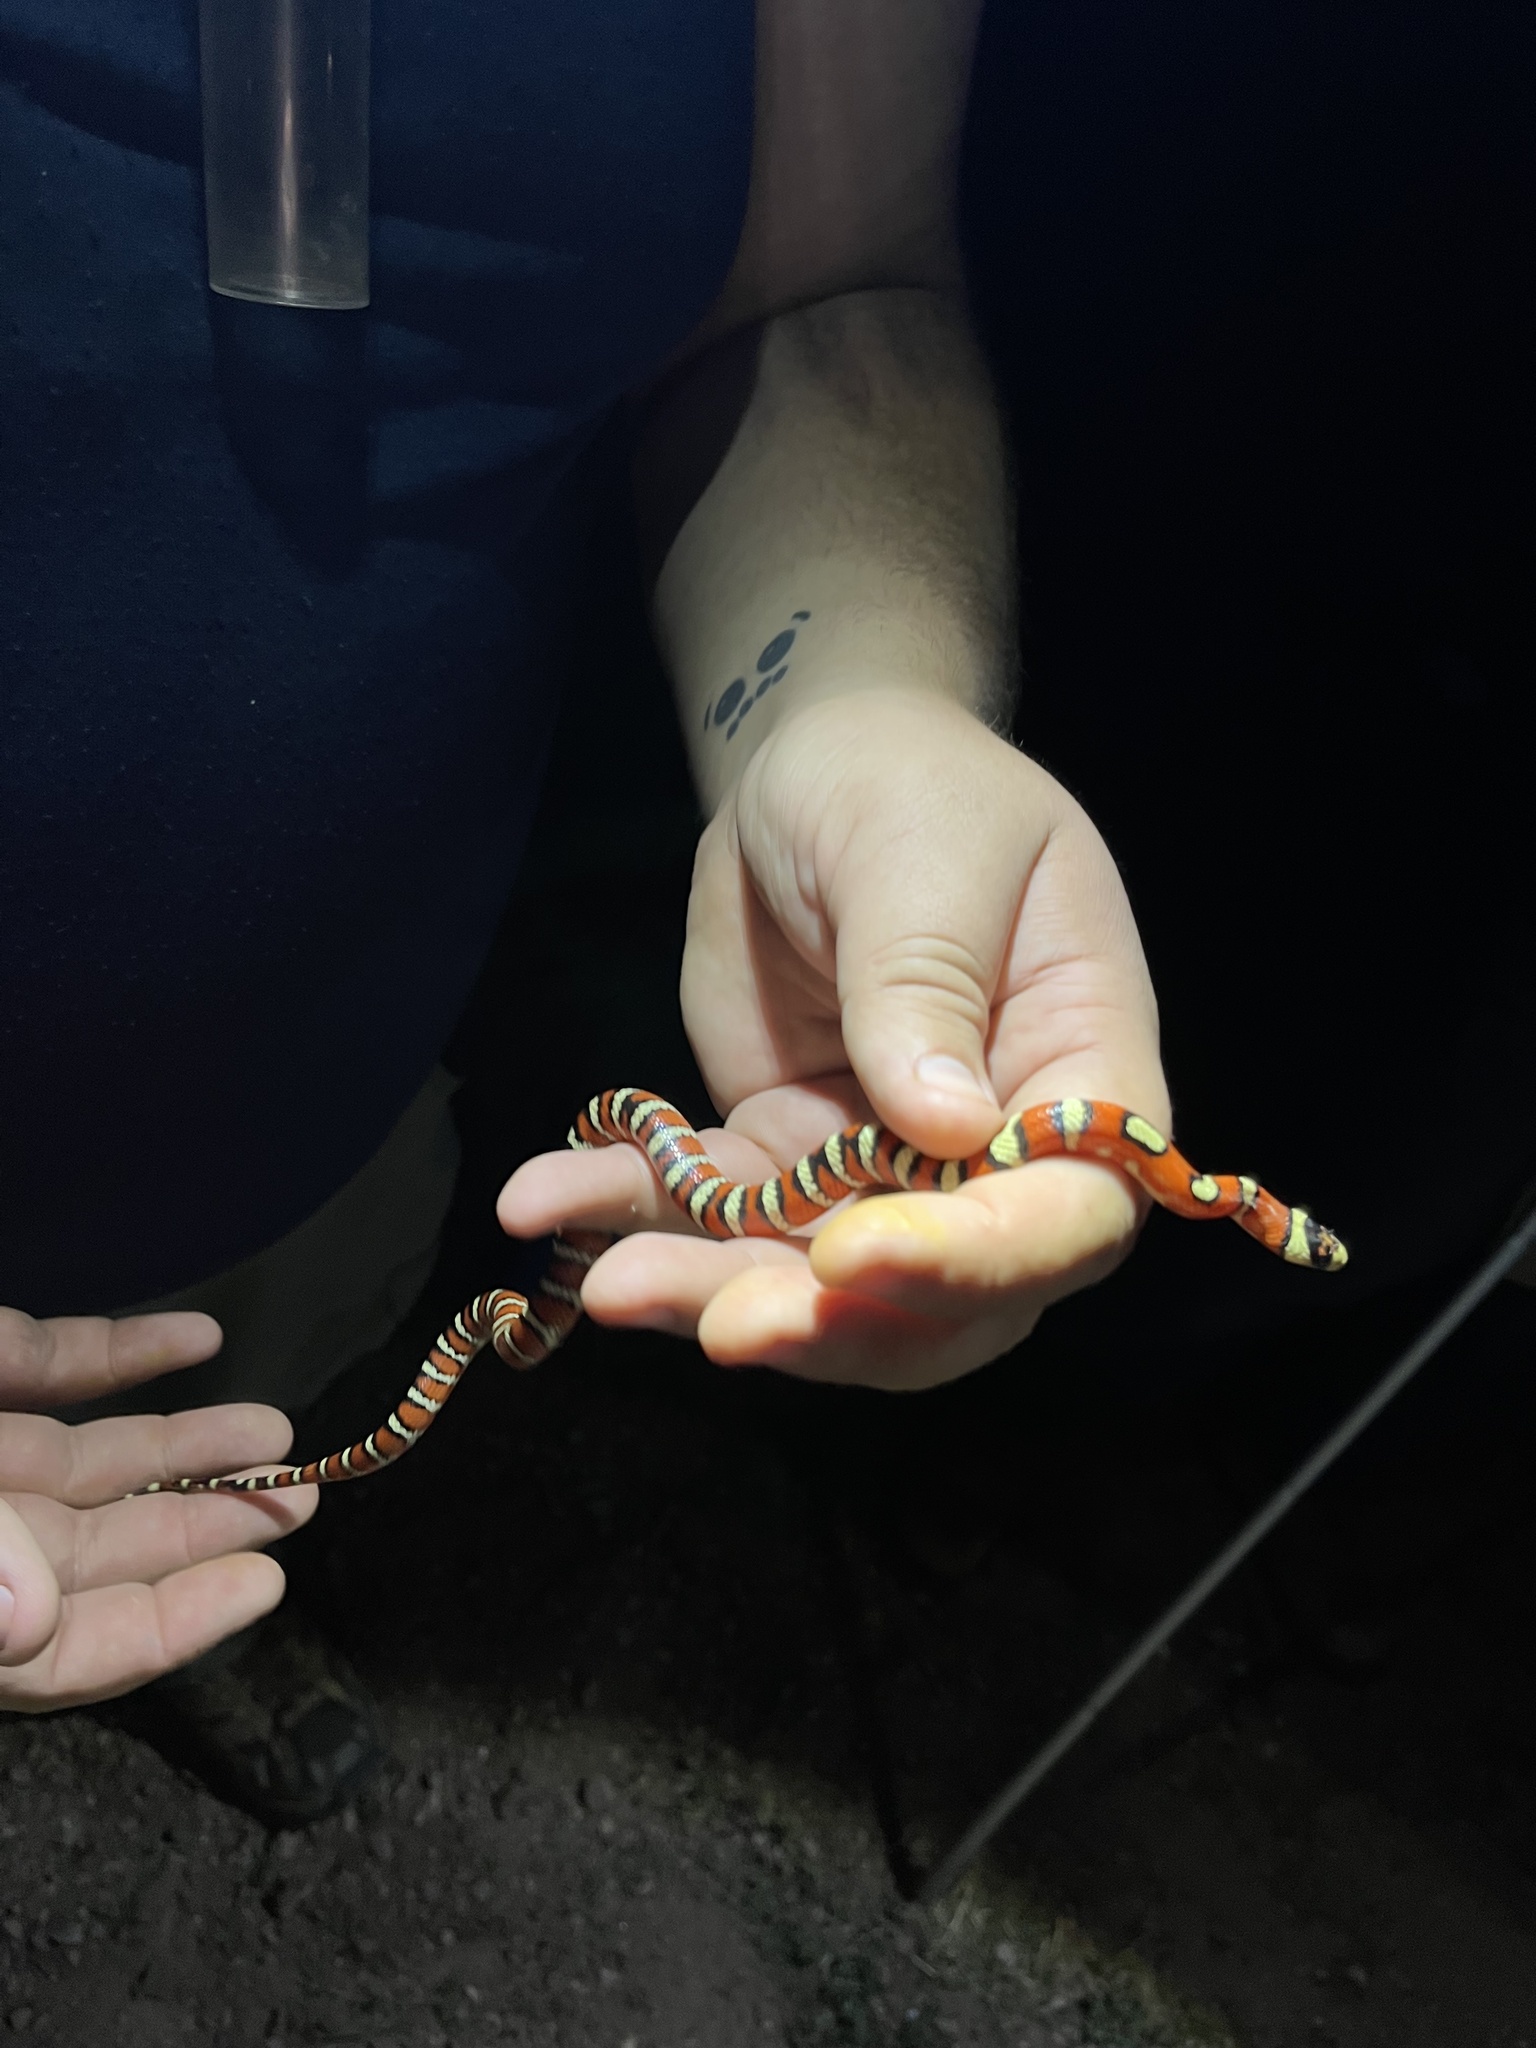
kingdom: Animalia
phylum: Chordata
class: Squamata
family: Colubridae
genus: Lampropeltis
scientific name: Lampropeltis knoblochi
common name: Chihuahuan mountain kingsnake
